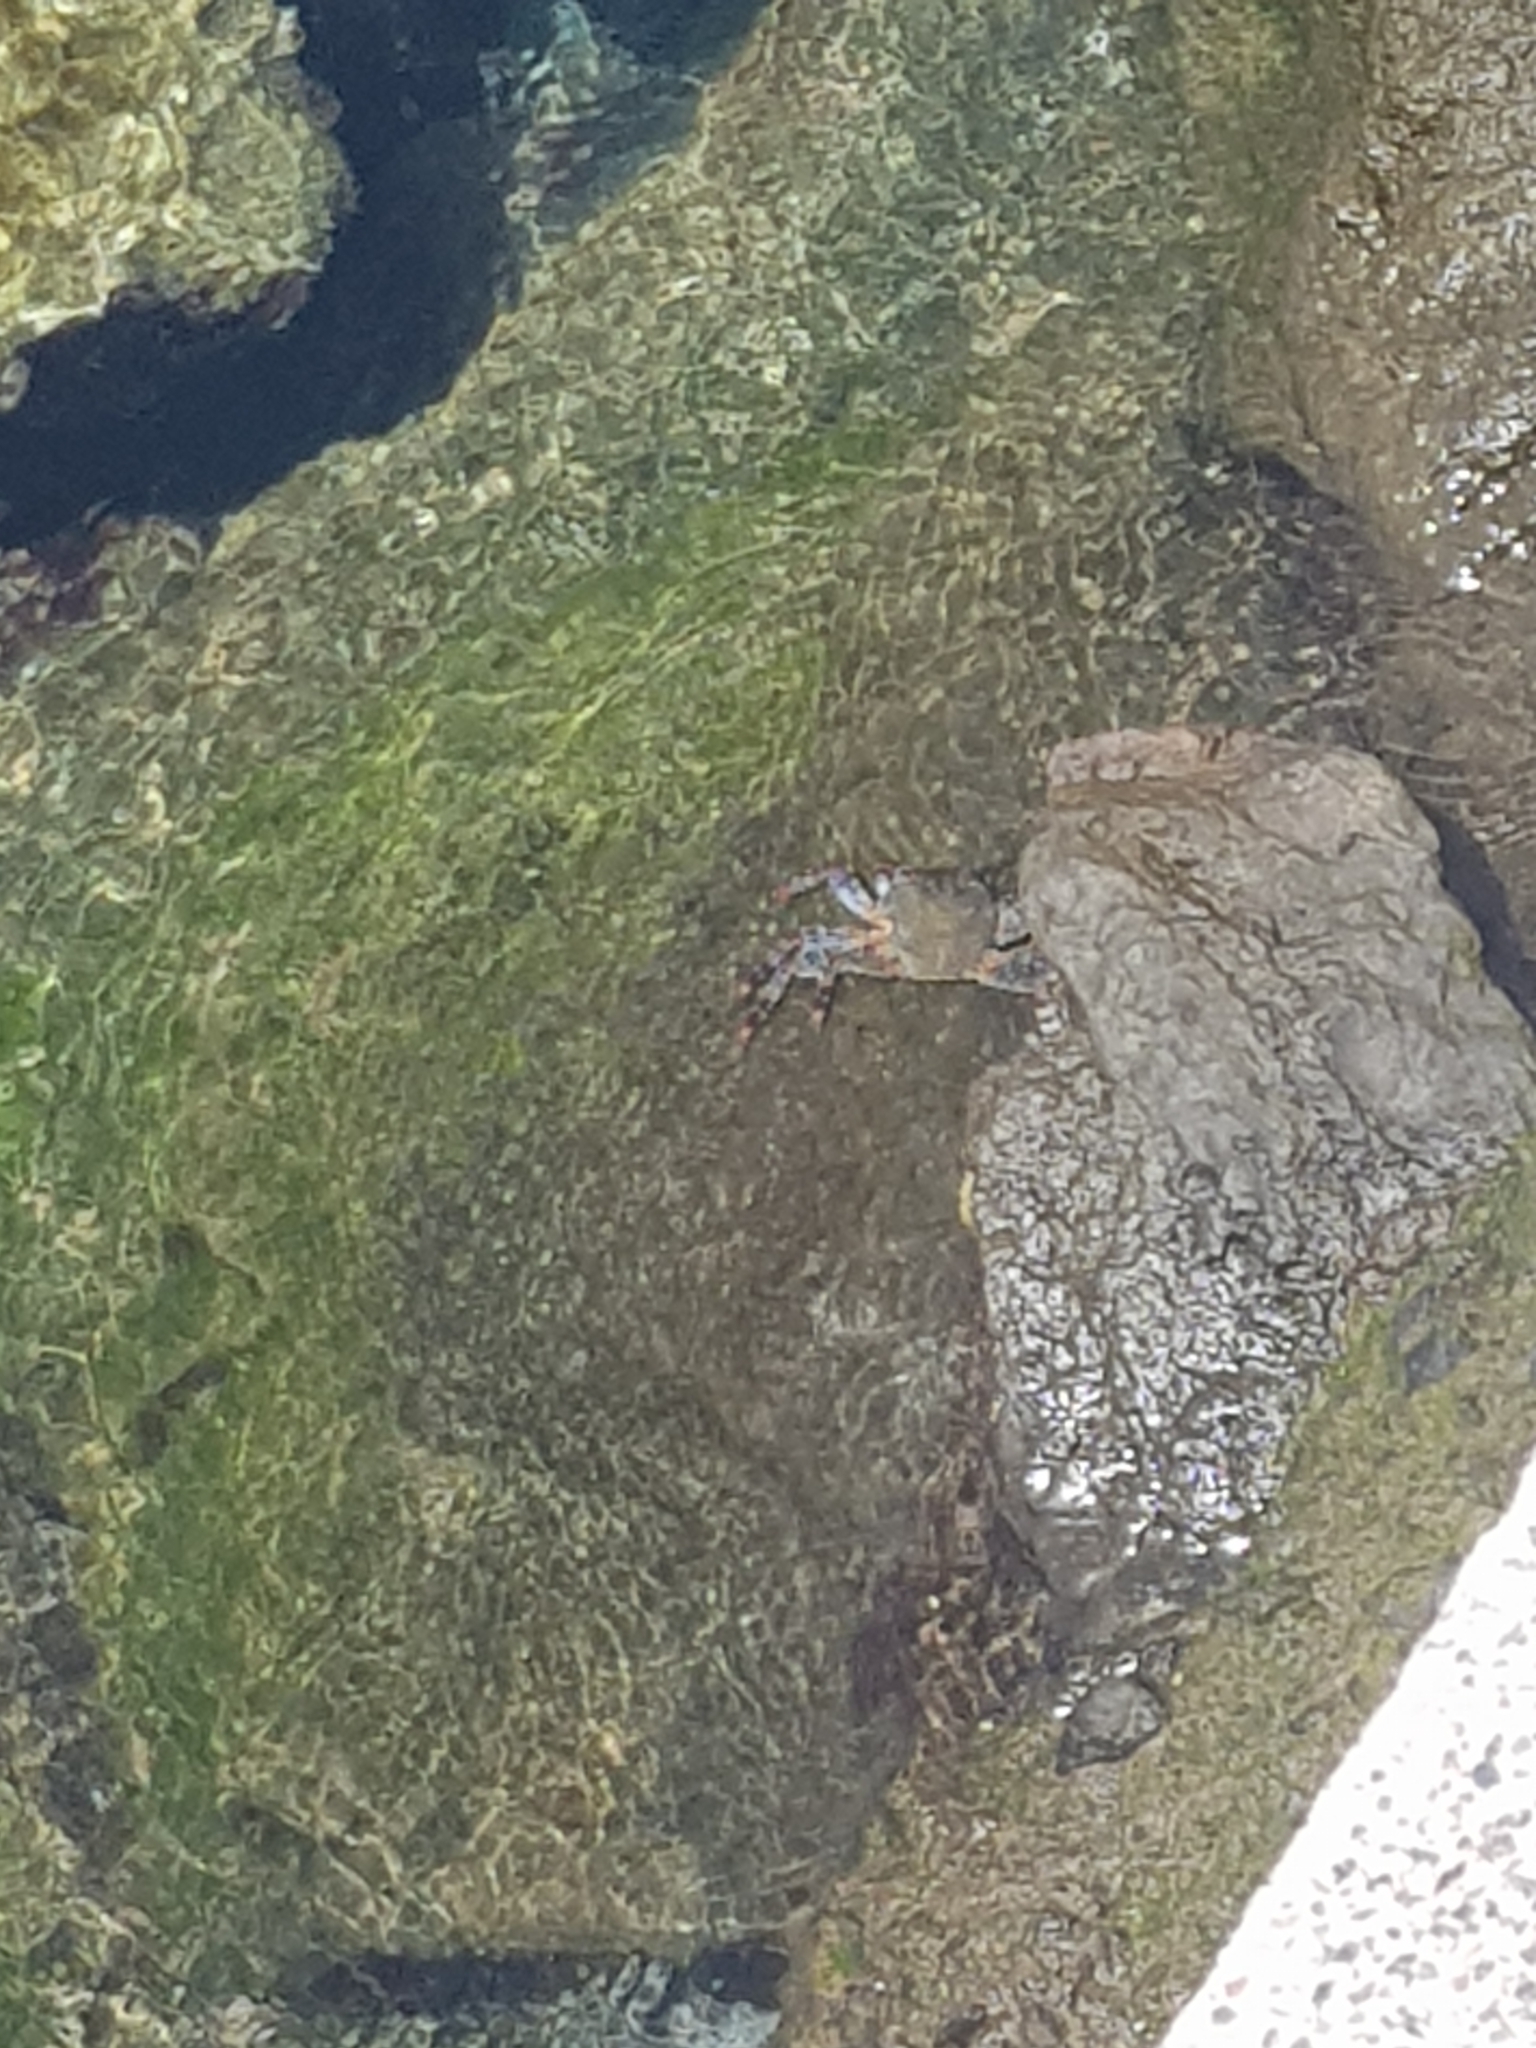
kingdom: Animalia
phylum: Arthropoda
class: Malacostraca
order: Decapoda
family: Grapsidae
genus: Grapsus
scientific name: Grapsus adscensionis
